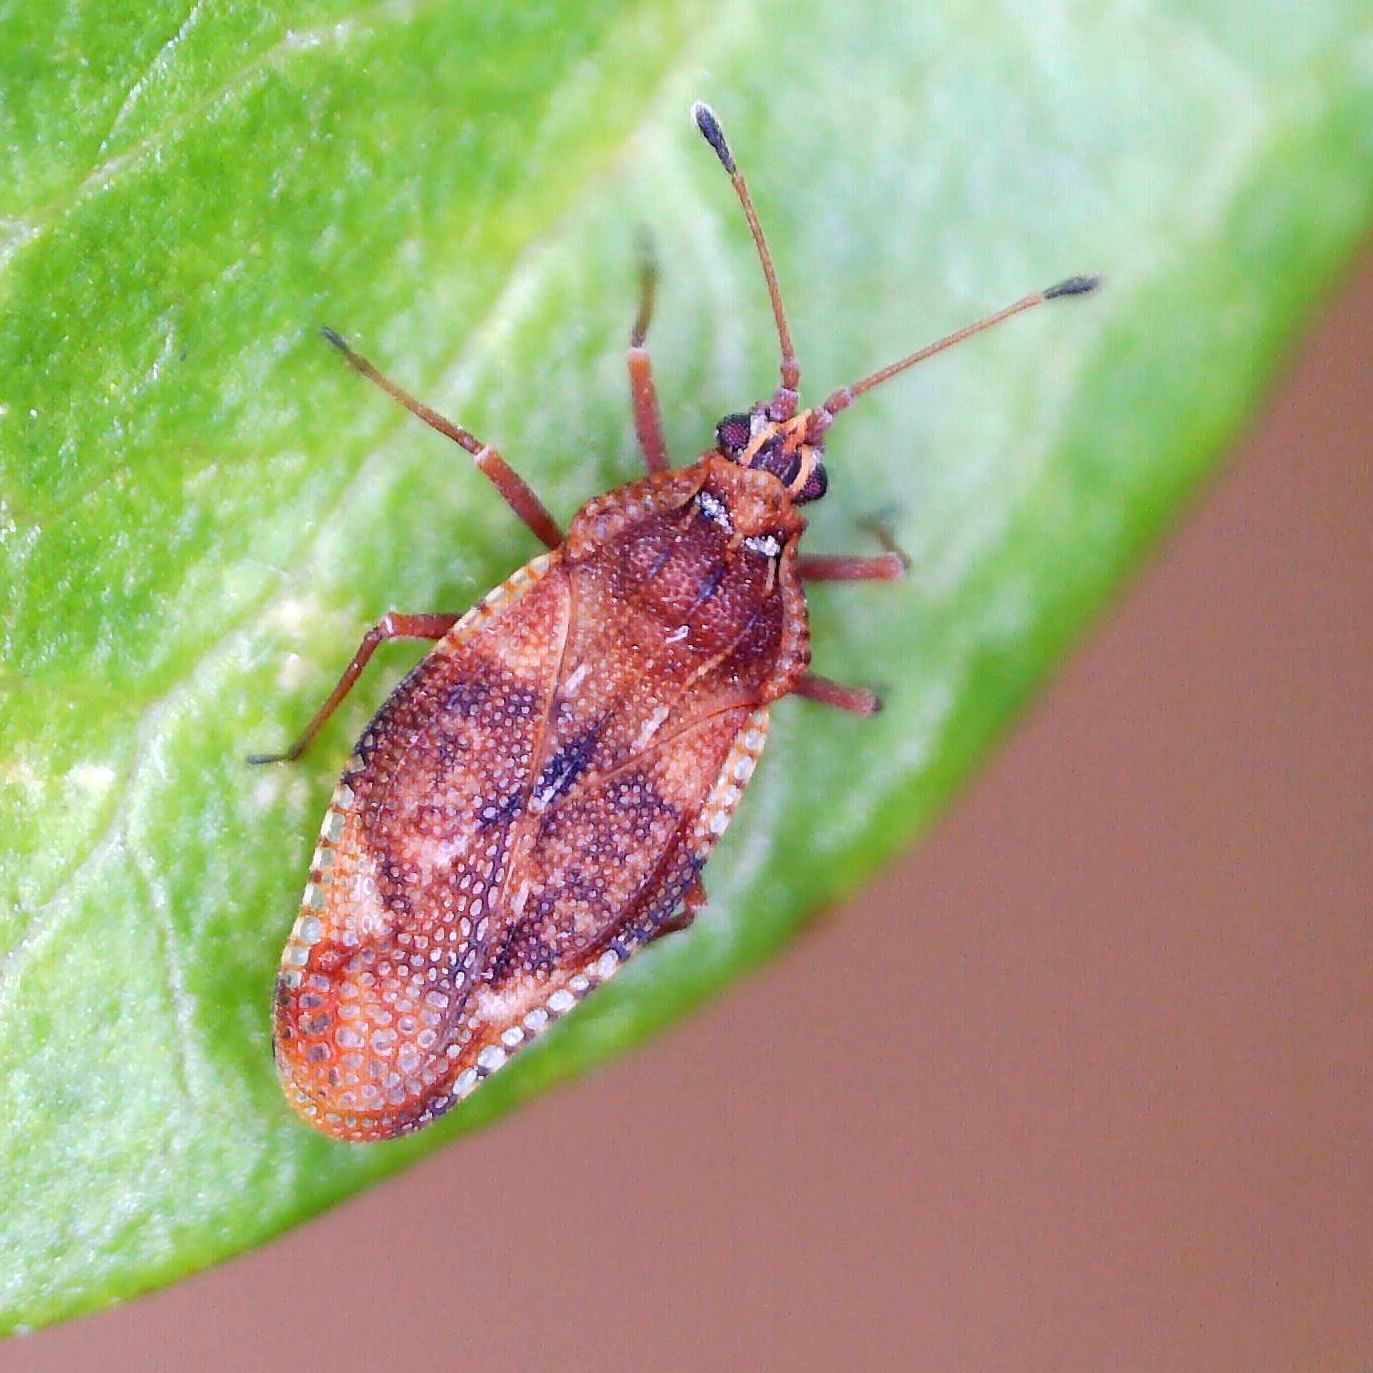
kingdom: Animalia
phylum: Arthropoda
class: Insecta
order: Hemiptera
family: Tingidae
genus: Physatocheila
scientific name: Physatocheila dumetorum
